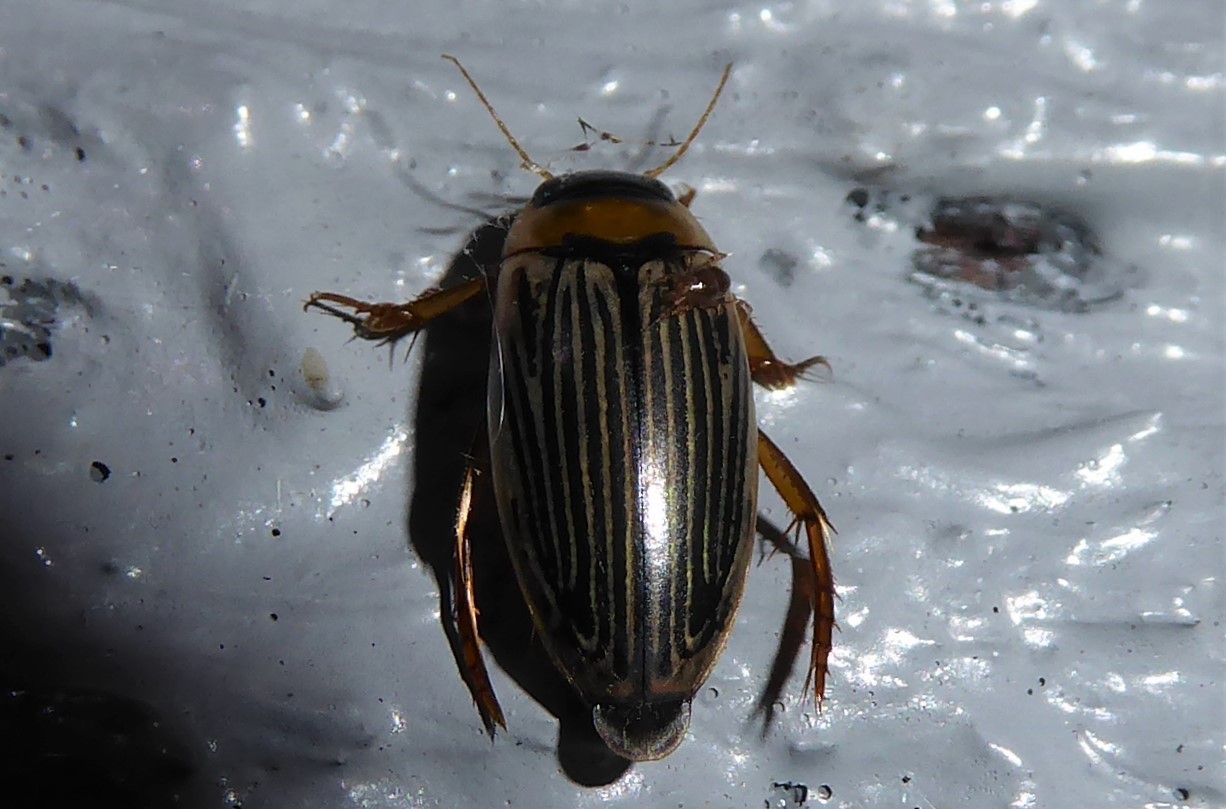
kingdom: Animalia
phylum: Arthropoda
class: Insecta
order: Coleoptera
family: Dytiscidae
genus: Lancetes
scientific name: Lancetes lanceolatus
